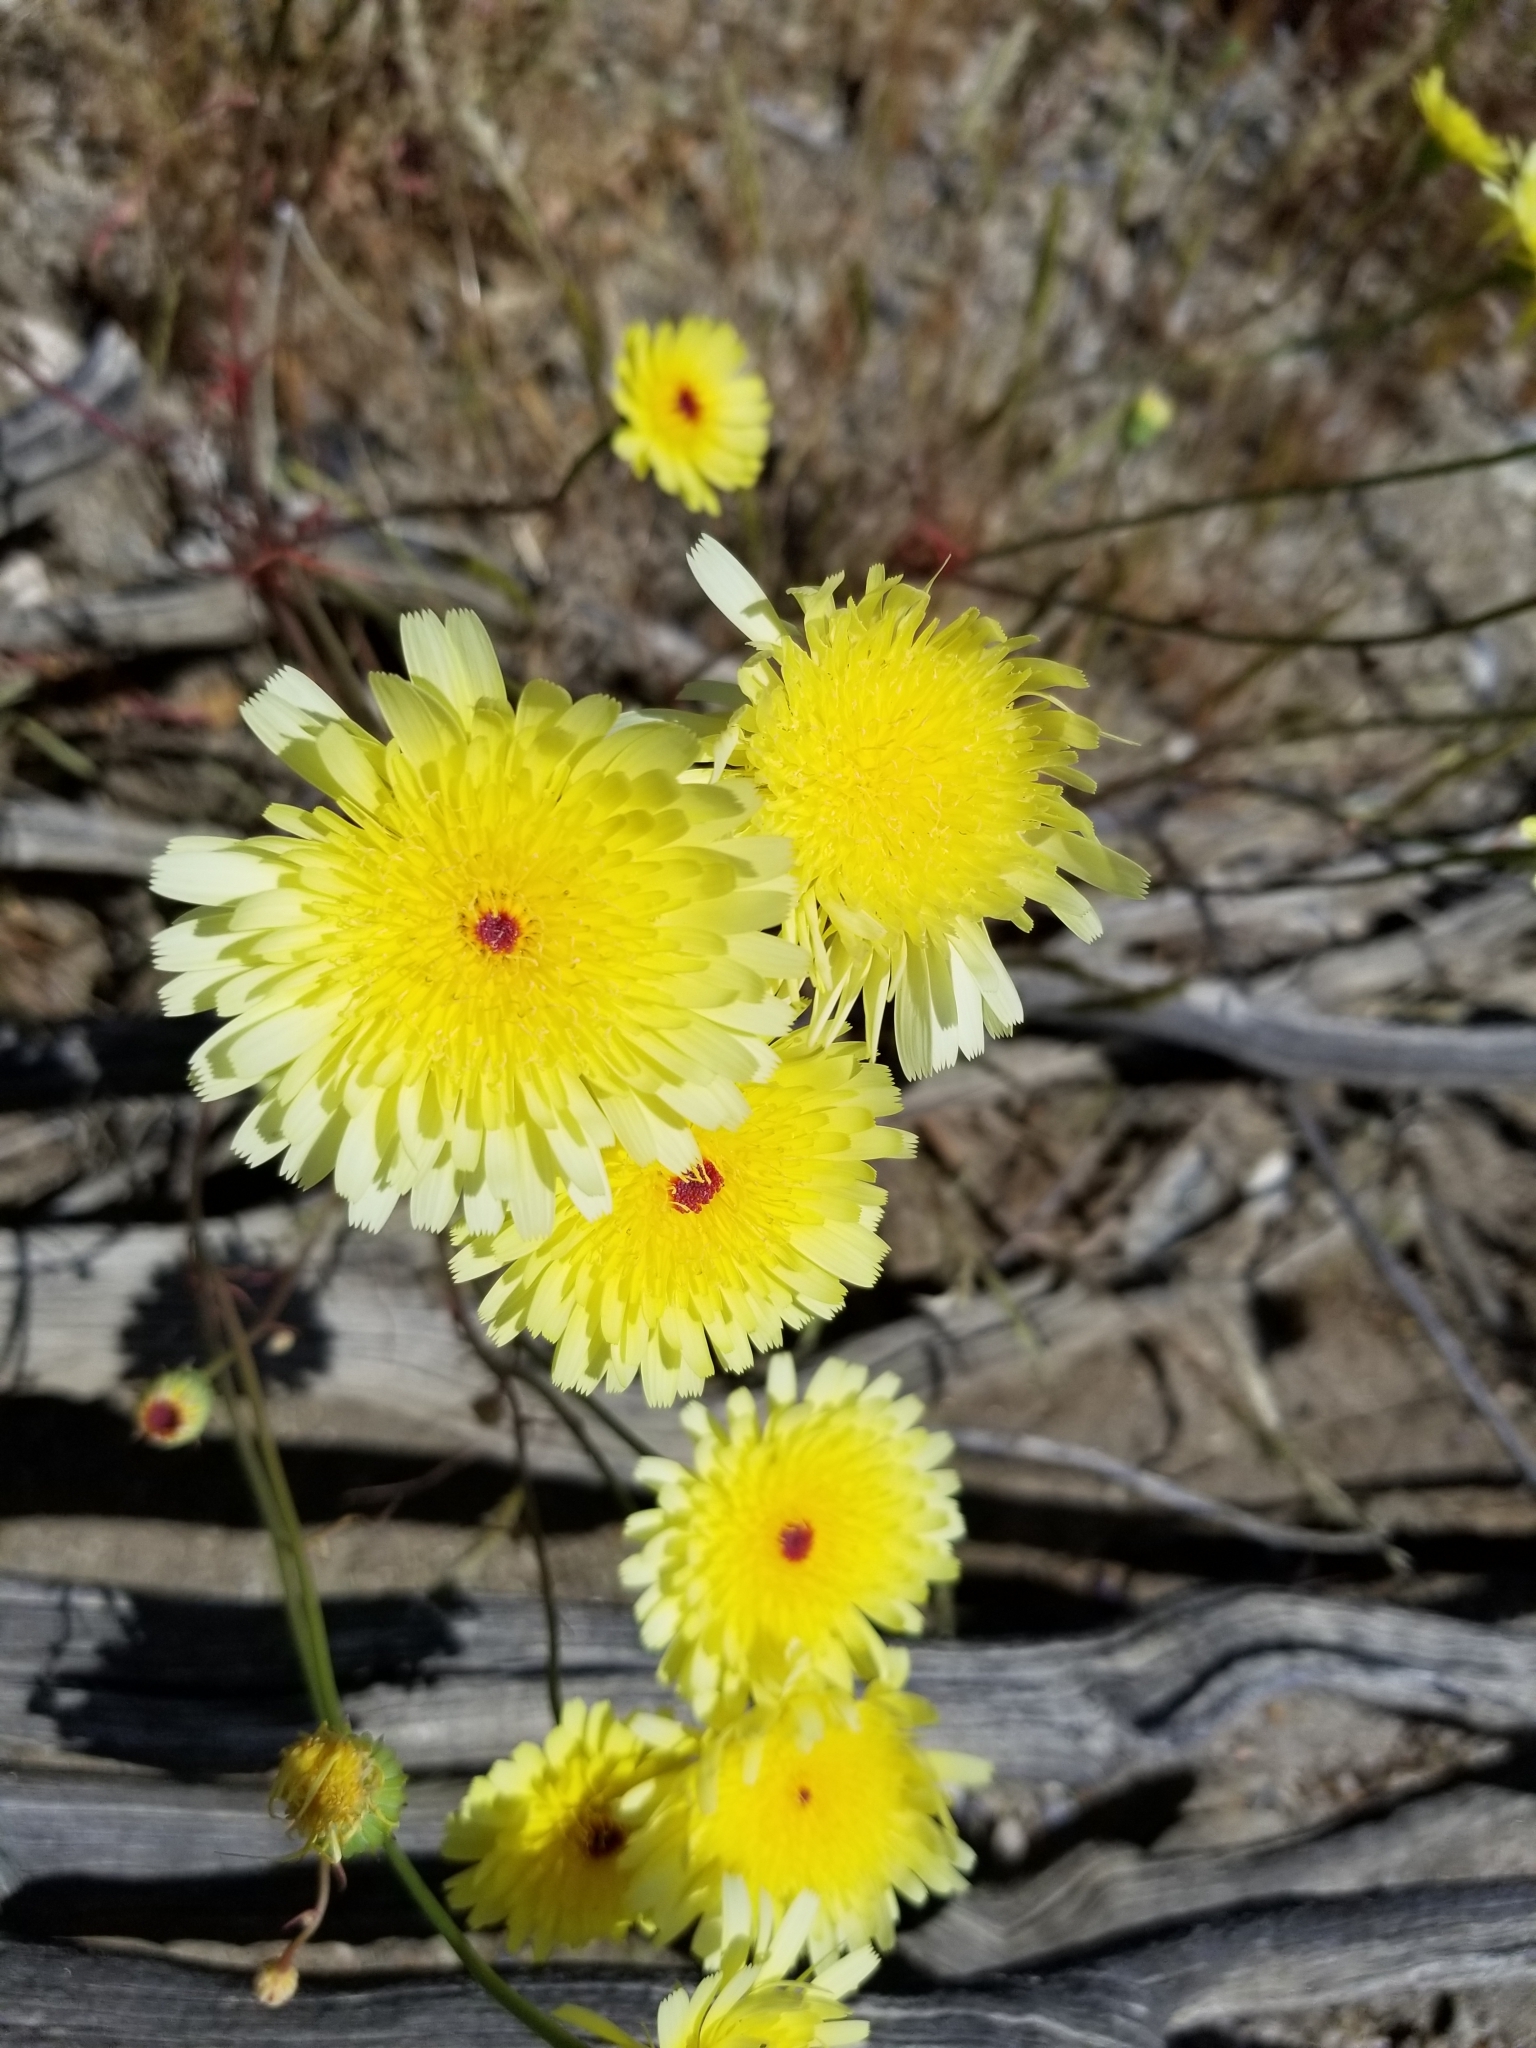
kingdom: Plantae
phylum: Tracheophyta
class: Magnoliopsida
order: Asterales
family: Asteraceae
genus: Malacothrix
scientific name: Malacothrix glabrata
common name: Smooth desert-dandelion
